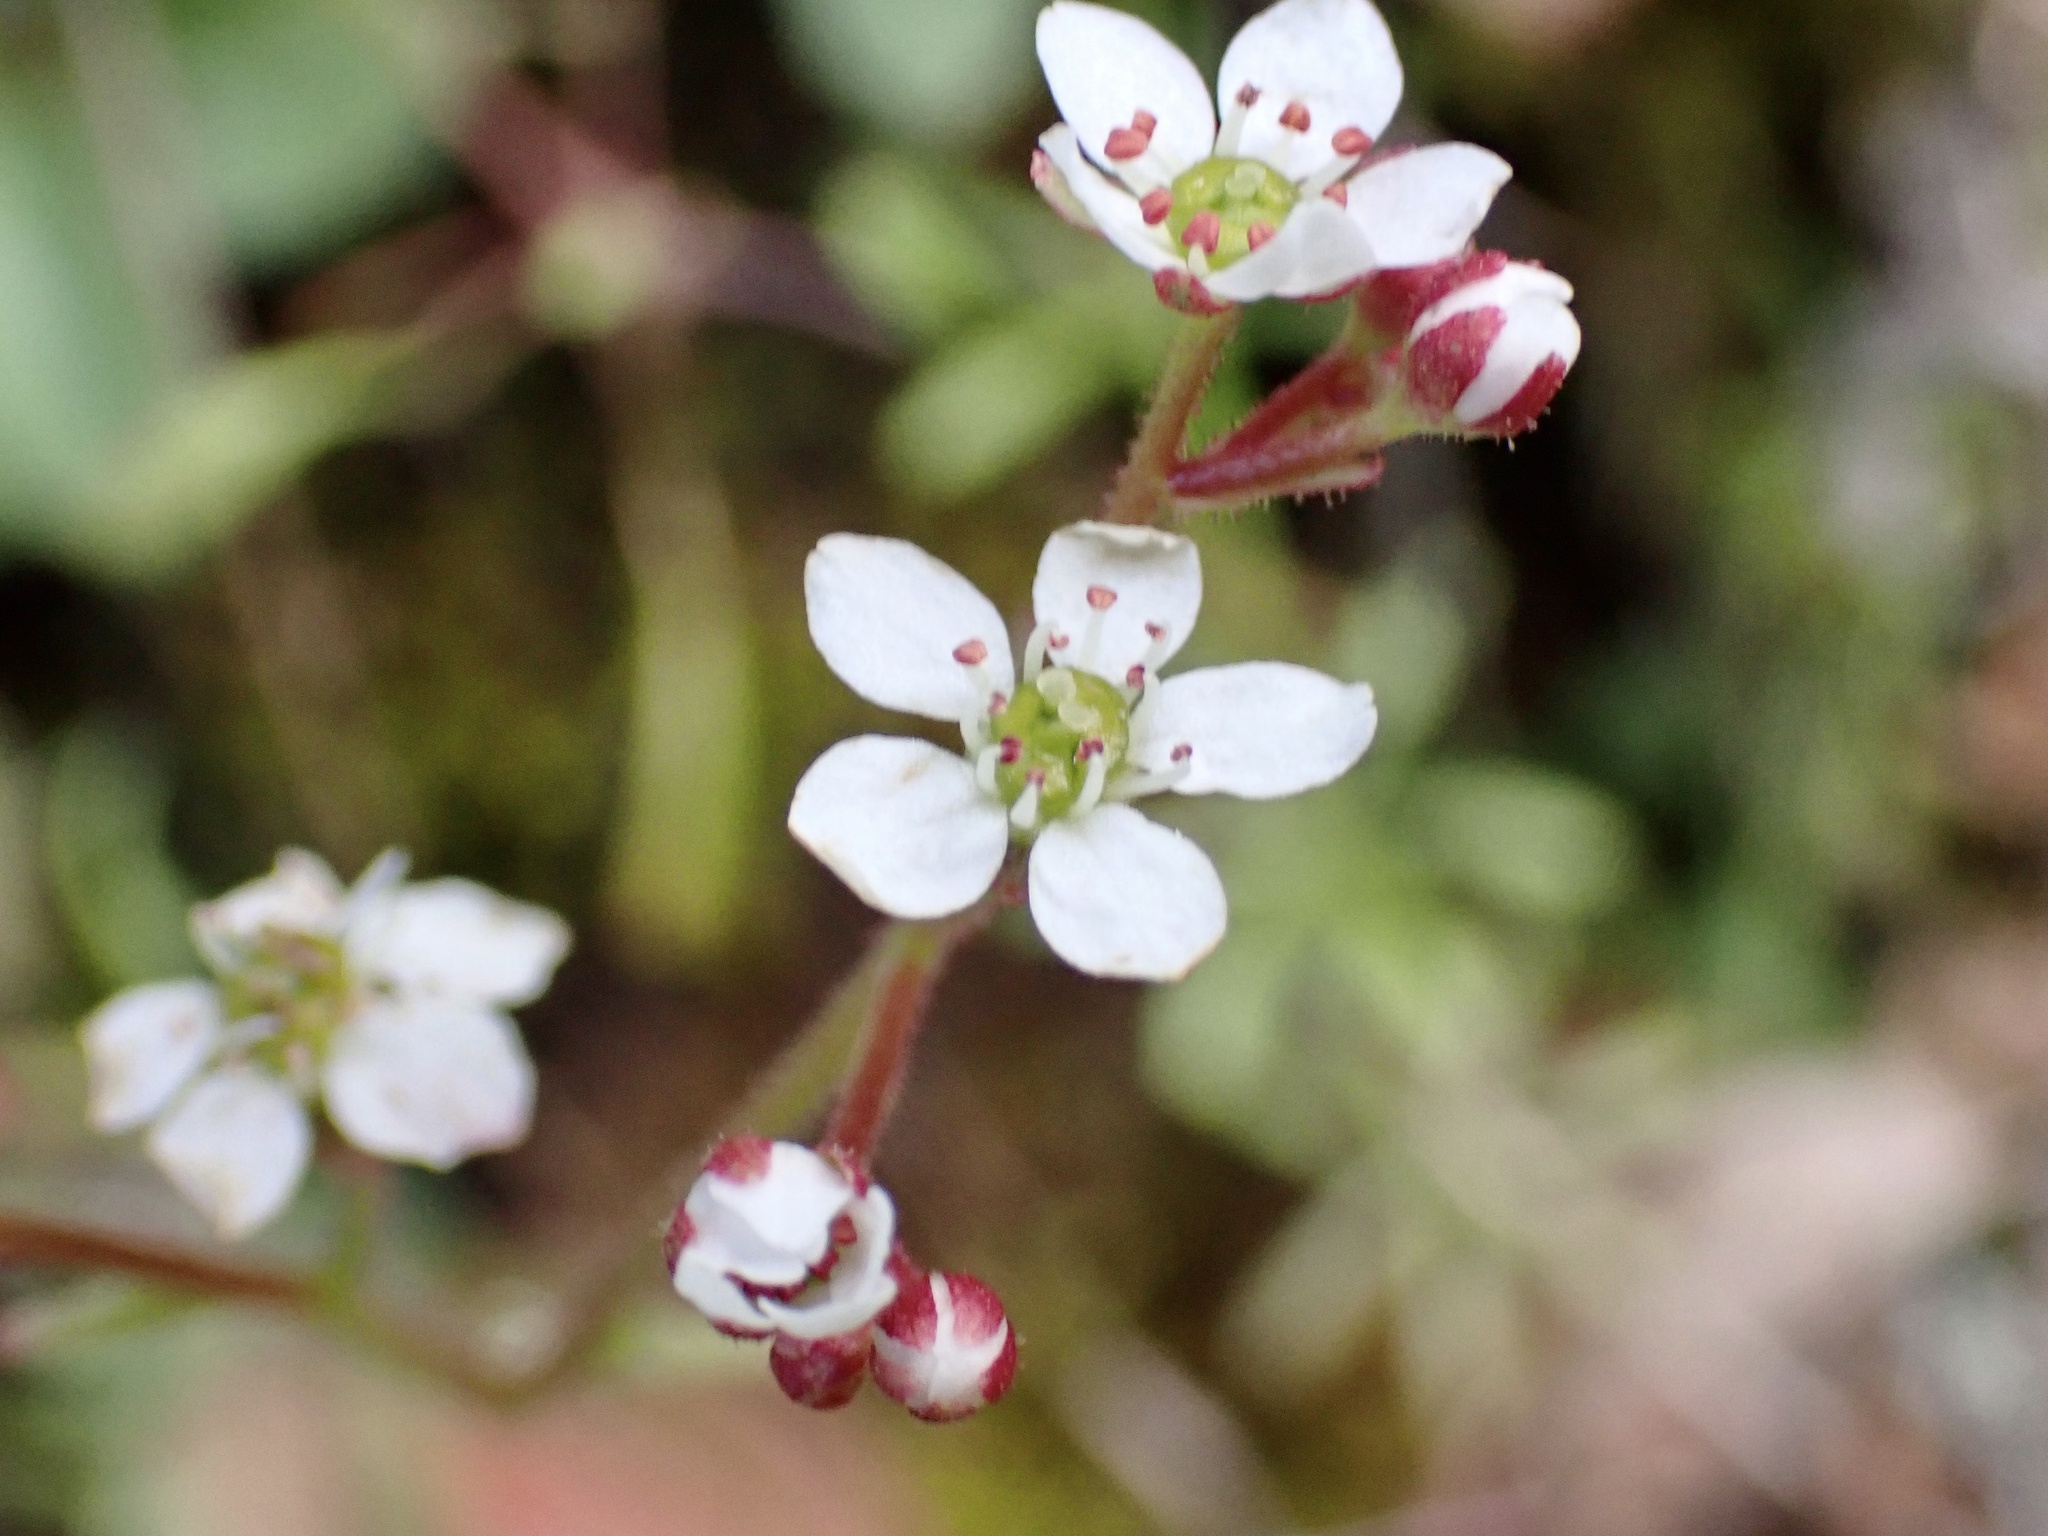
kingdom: Plantae
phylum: Tracheophyta
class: Magnoliopsida
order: Saxifragales
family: Saxifragaceae
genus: Micranthes
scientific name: Micranthes californica
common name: California saxifrage
